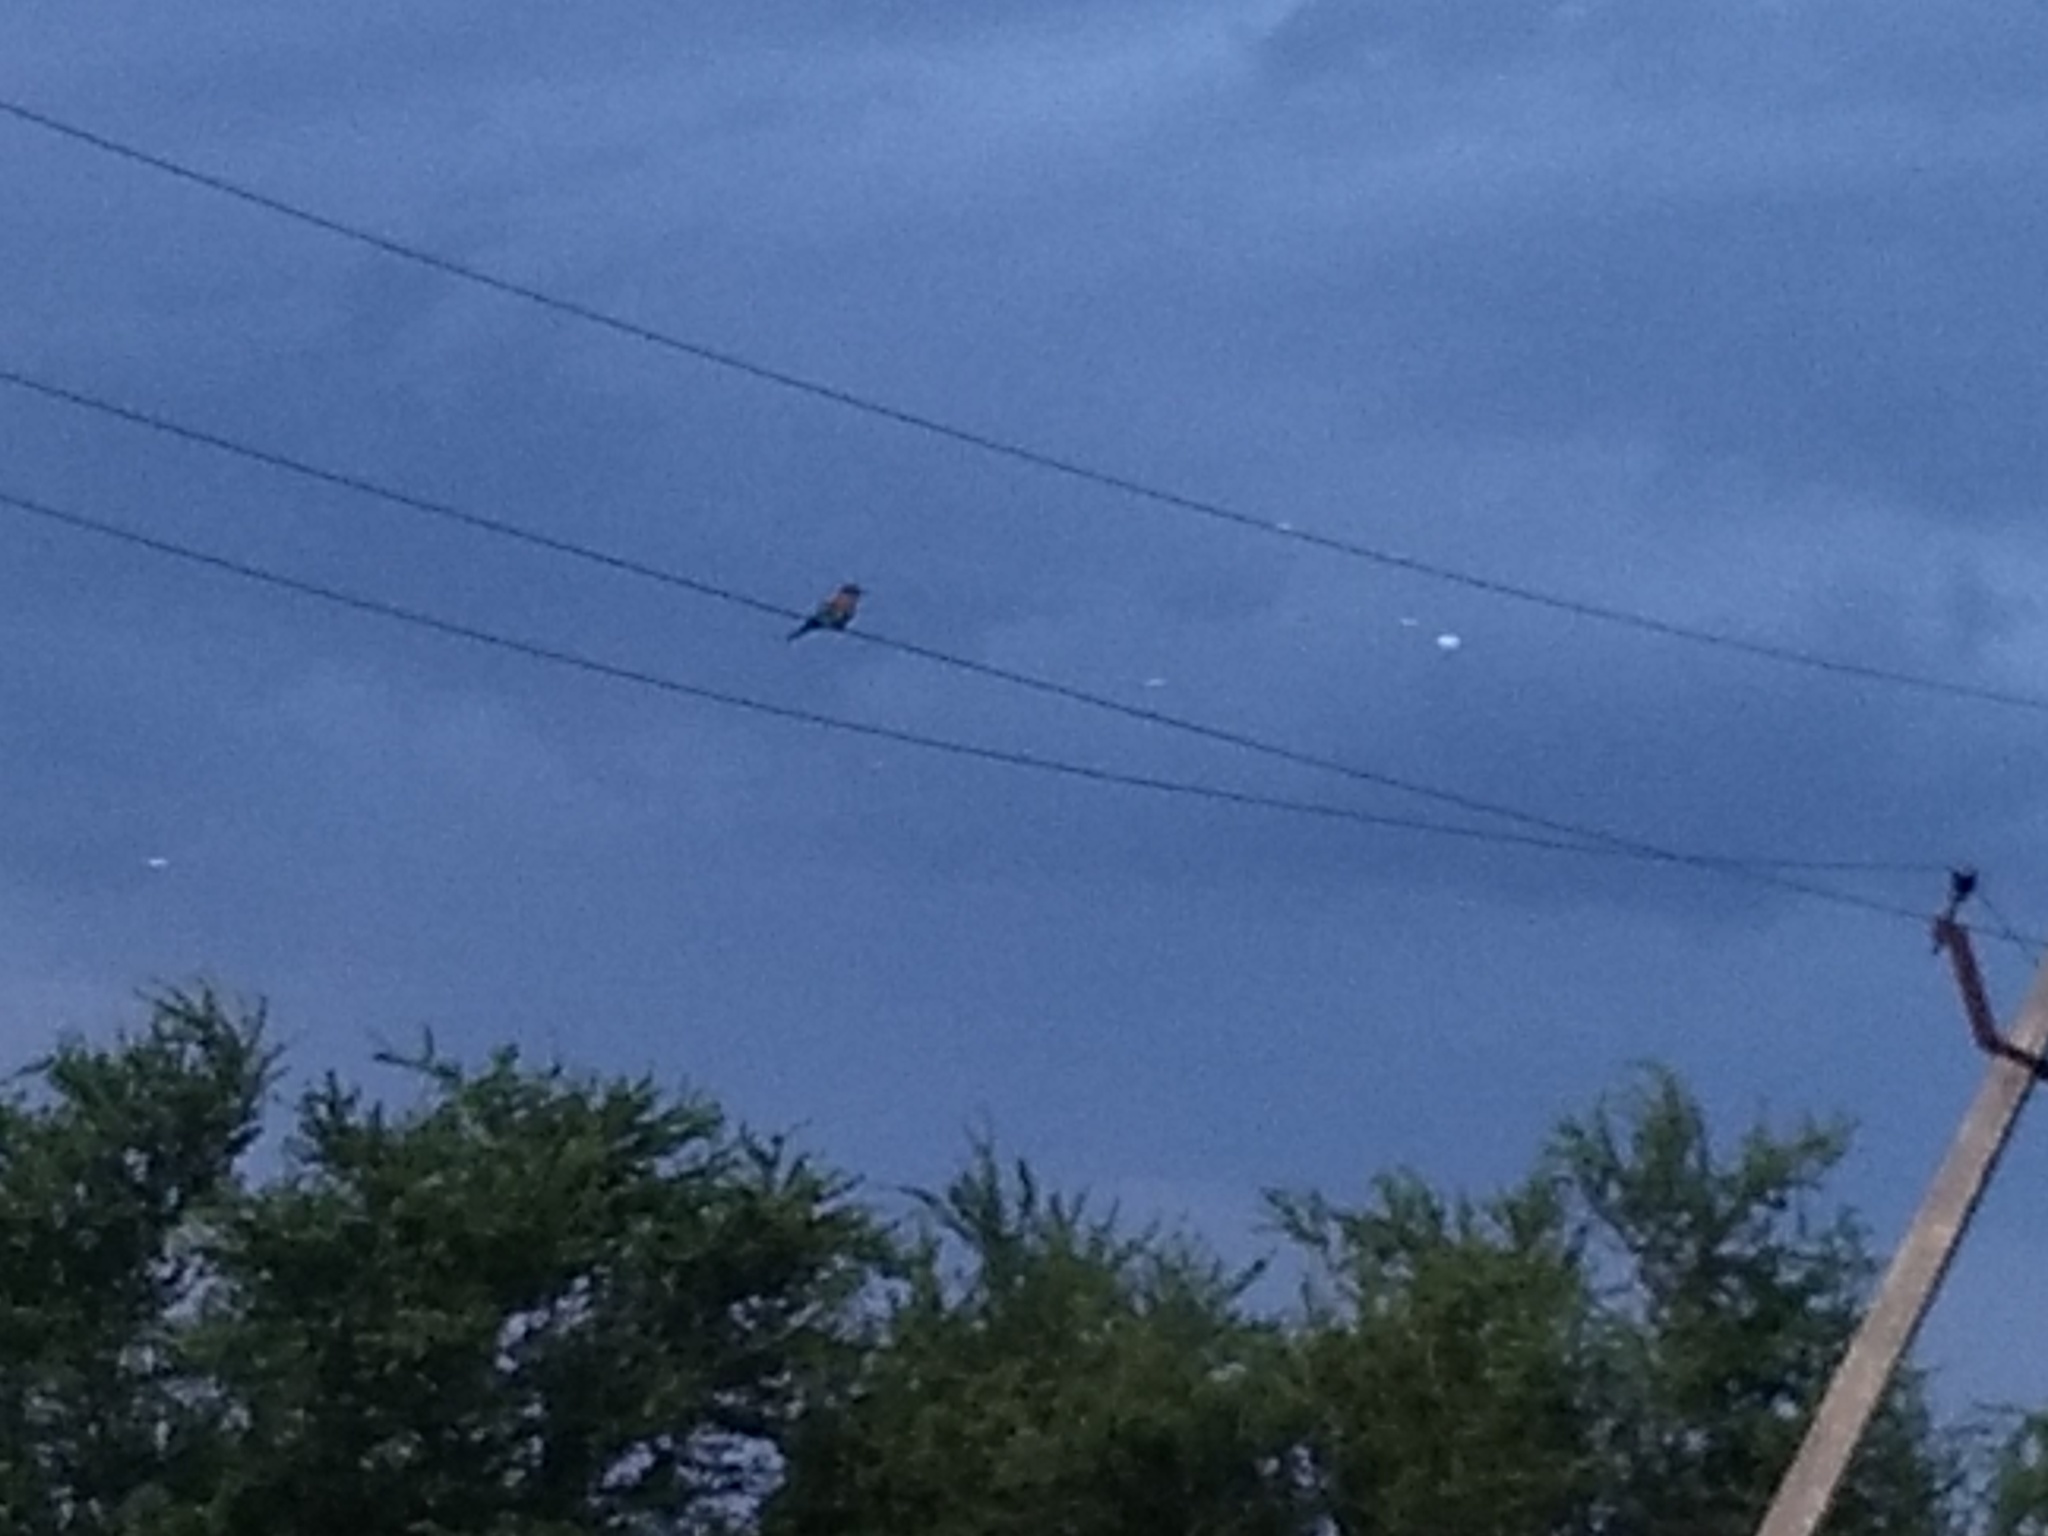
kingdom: Animalia
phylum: Chordata
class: Aves
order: Coraciiformes
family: Coraciidae
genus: Coracias
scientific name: Coracias benghalensis
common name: Indian roller
